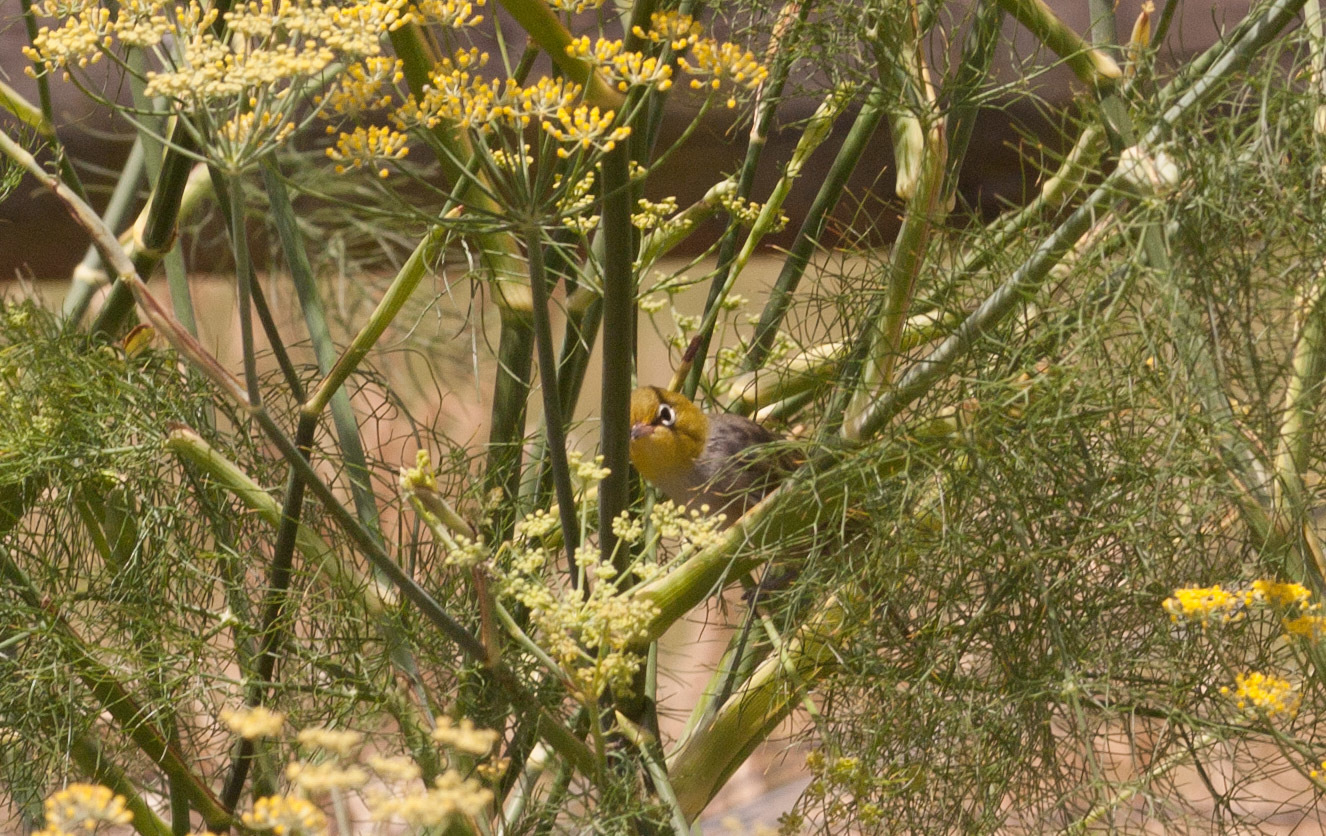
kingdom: Animalia
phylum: Chordata
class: Aves
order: Passeriformes
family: Zosteropidae
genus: Zosterops
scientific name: Zosterops lateralis
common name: Silvereye
